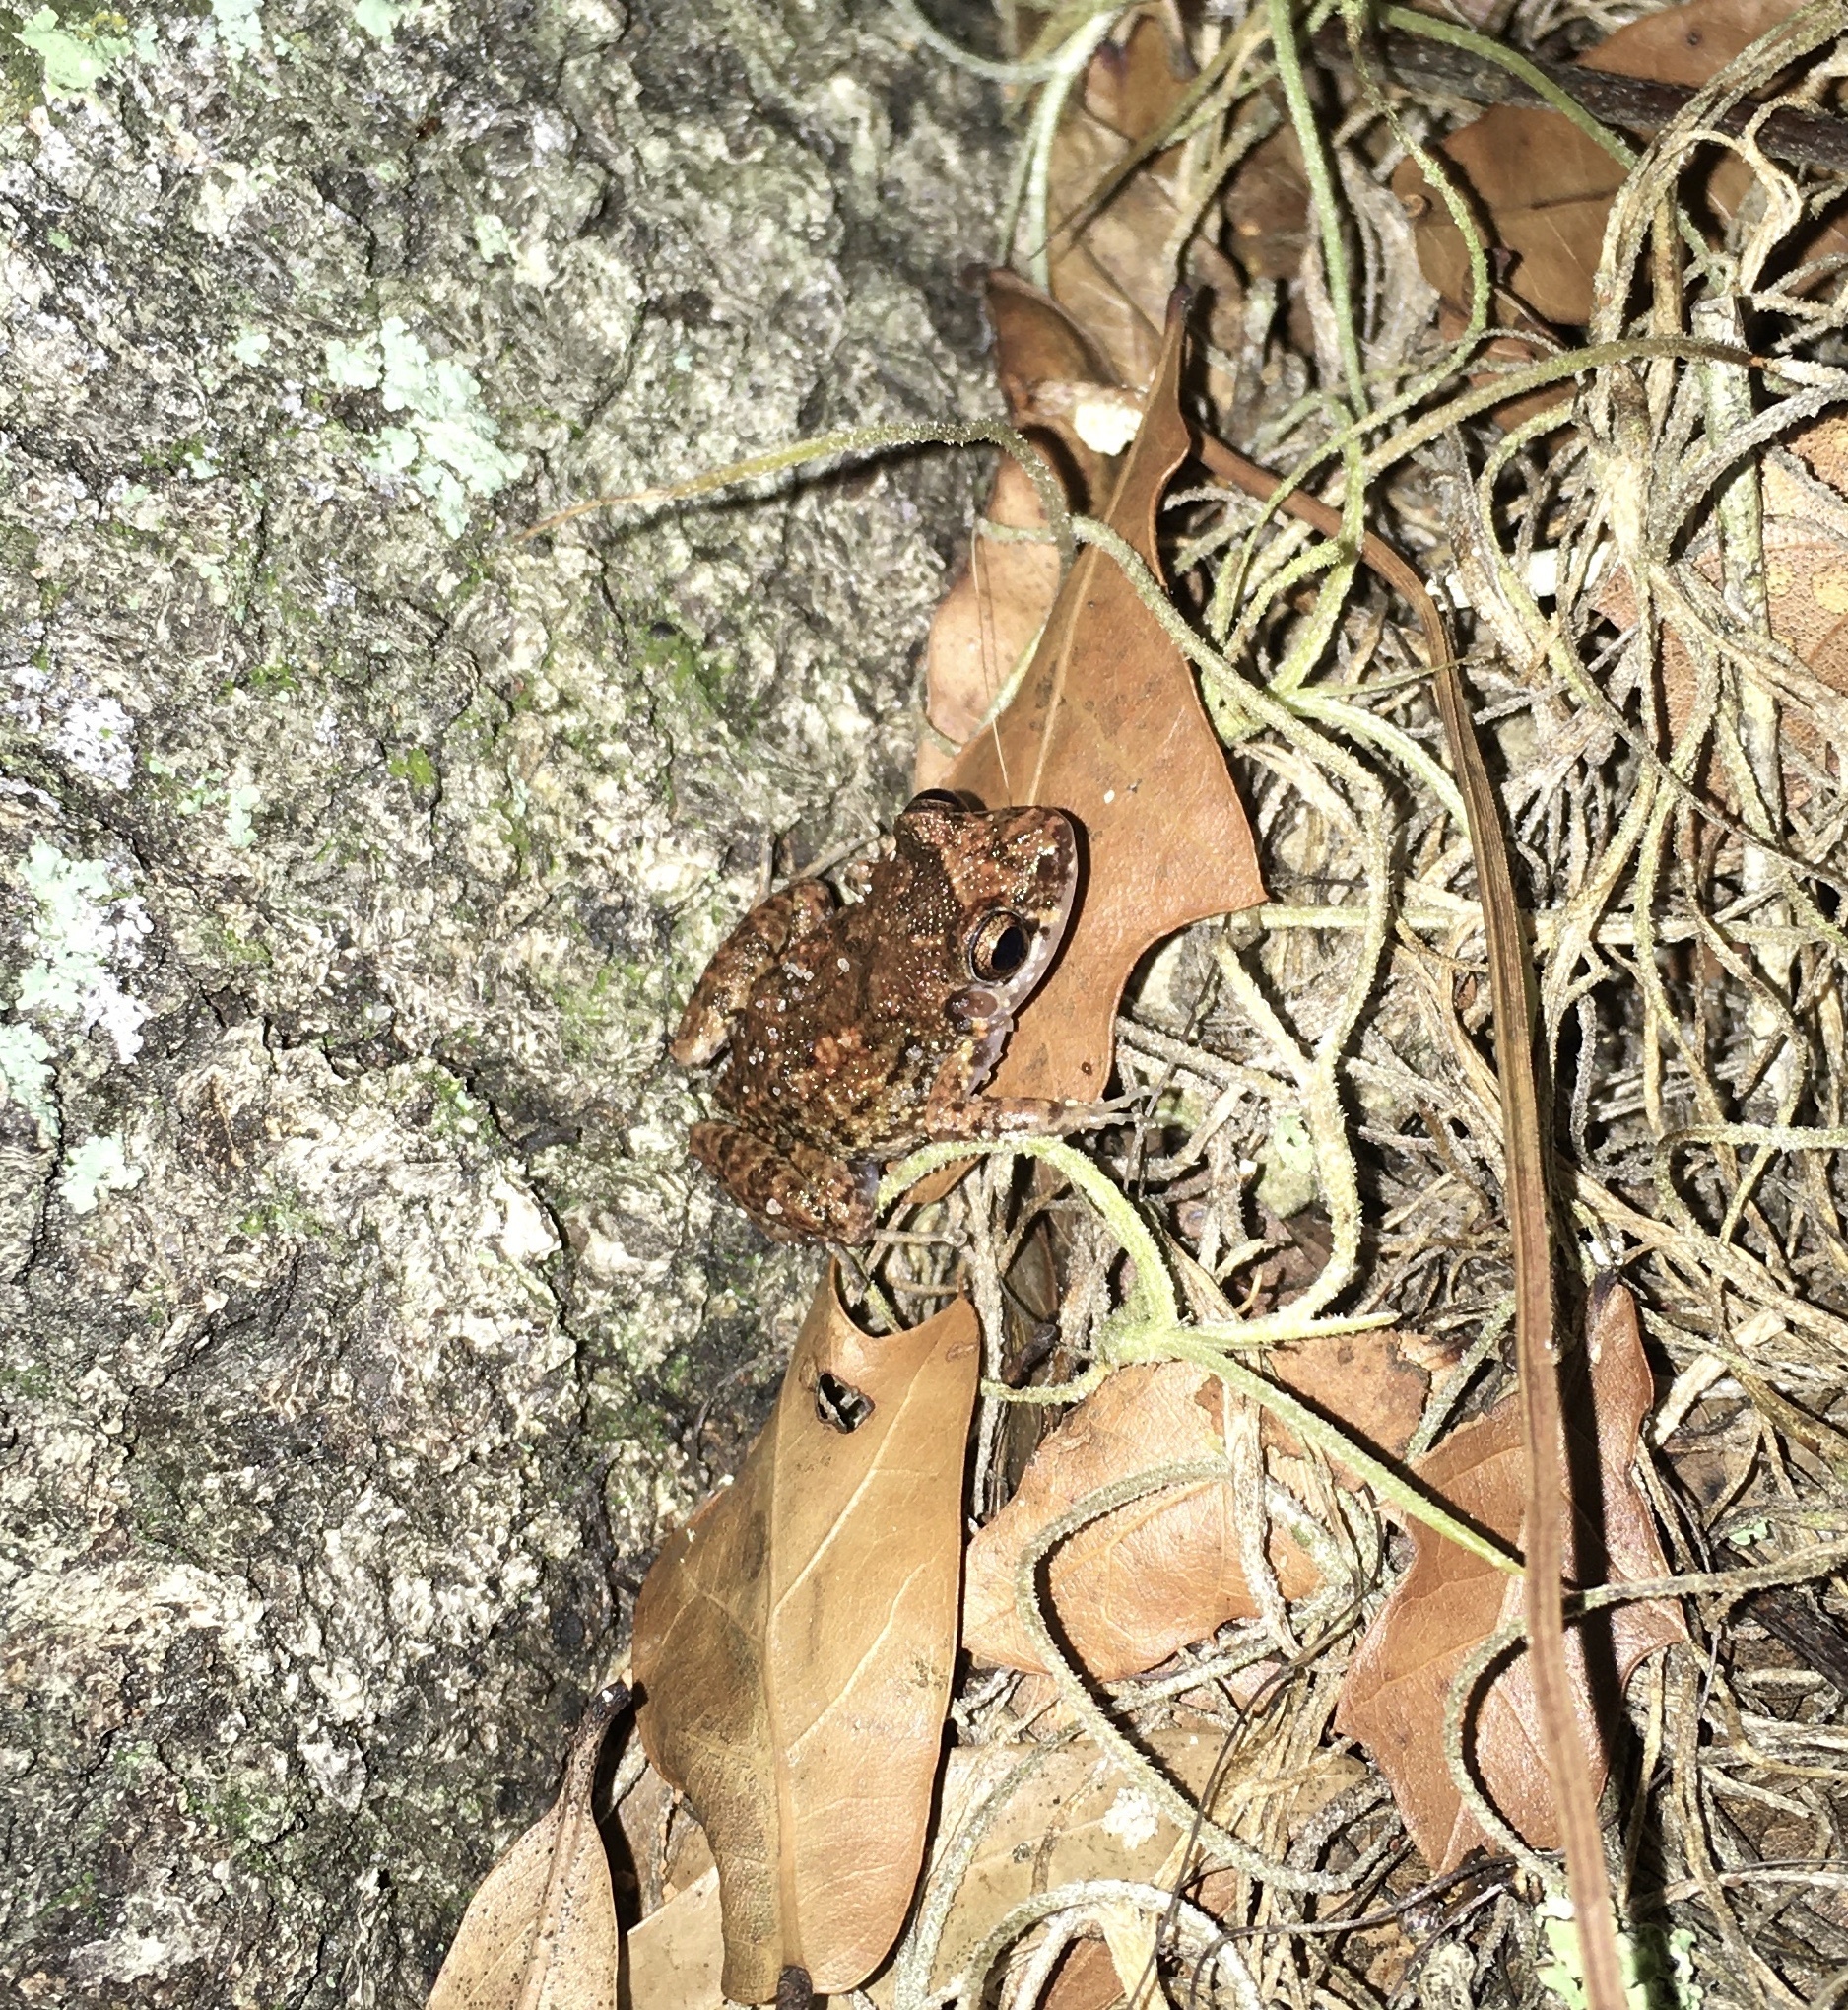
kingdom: Animalia
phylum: Chordata
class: Amphibia
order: Anura
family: Eleutherodactylidae
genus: Eleutherodactylus
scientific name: Eleutherodactylus planirostris
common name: Greenhouse frog
